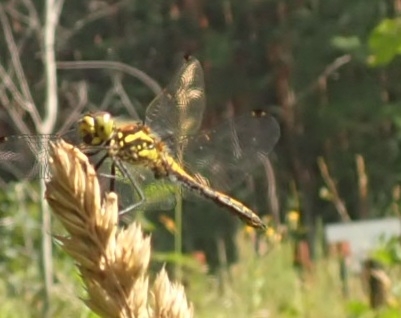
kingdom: Animalia
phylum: Arthropoda
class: Insecta
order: Odonata
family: Libellulidae
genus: Sympetrum
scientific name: Sympetrum danae
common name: Black darter
